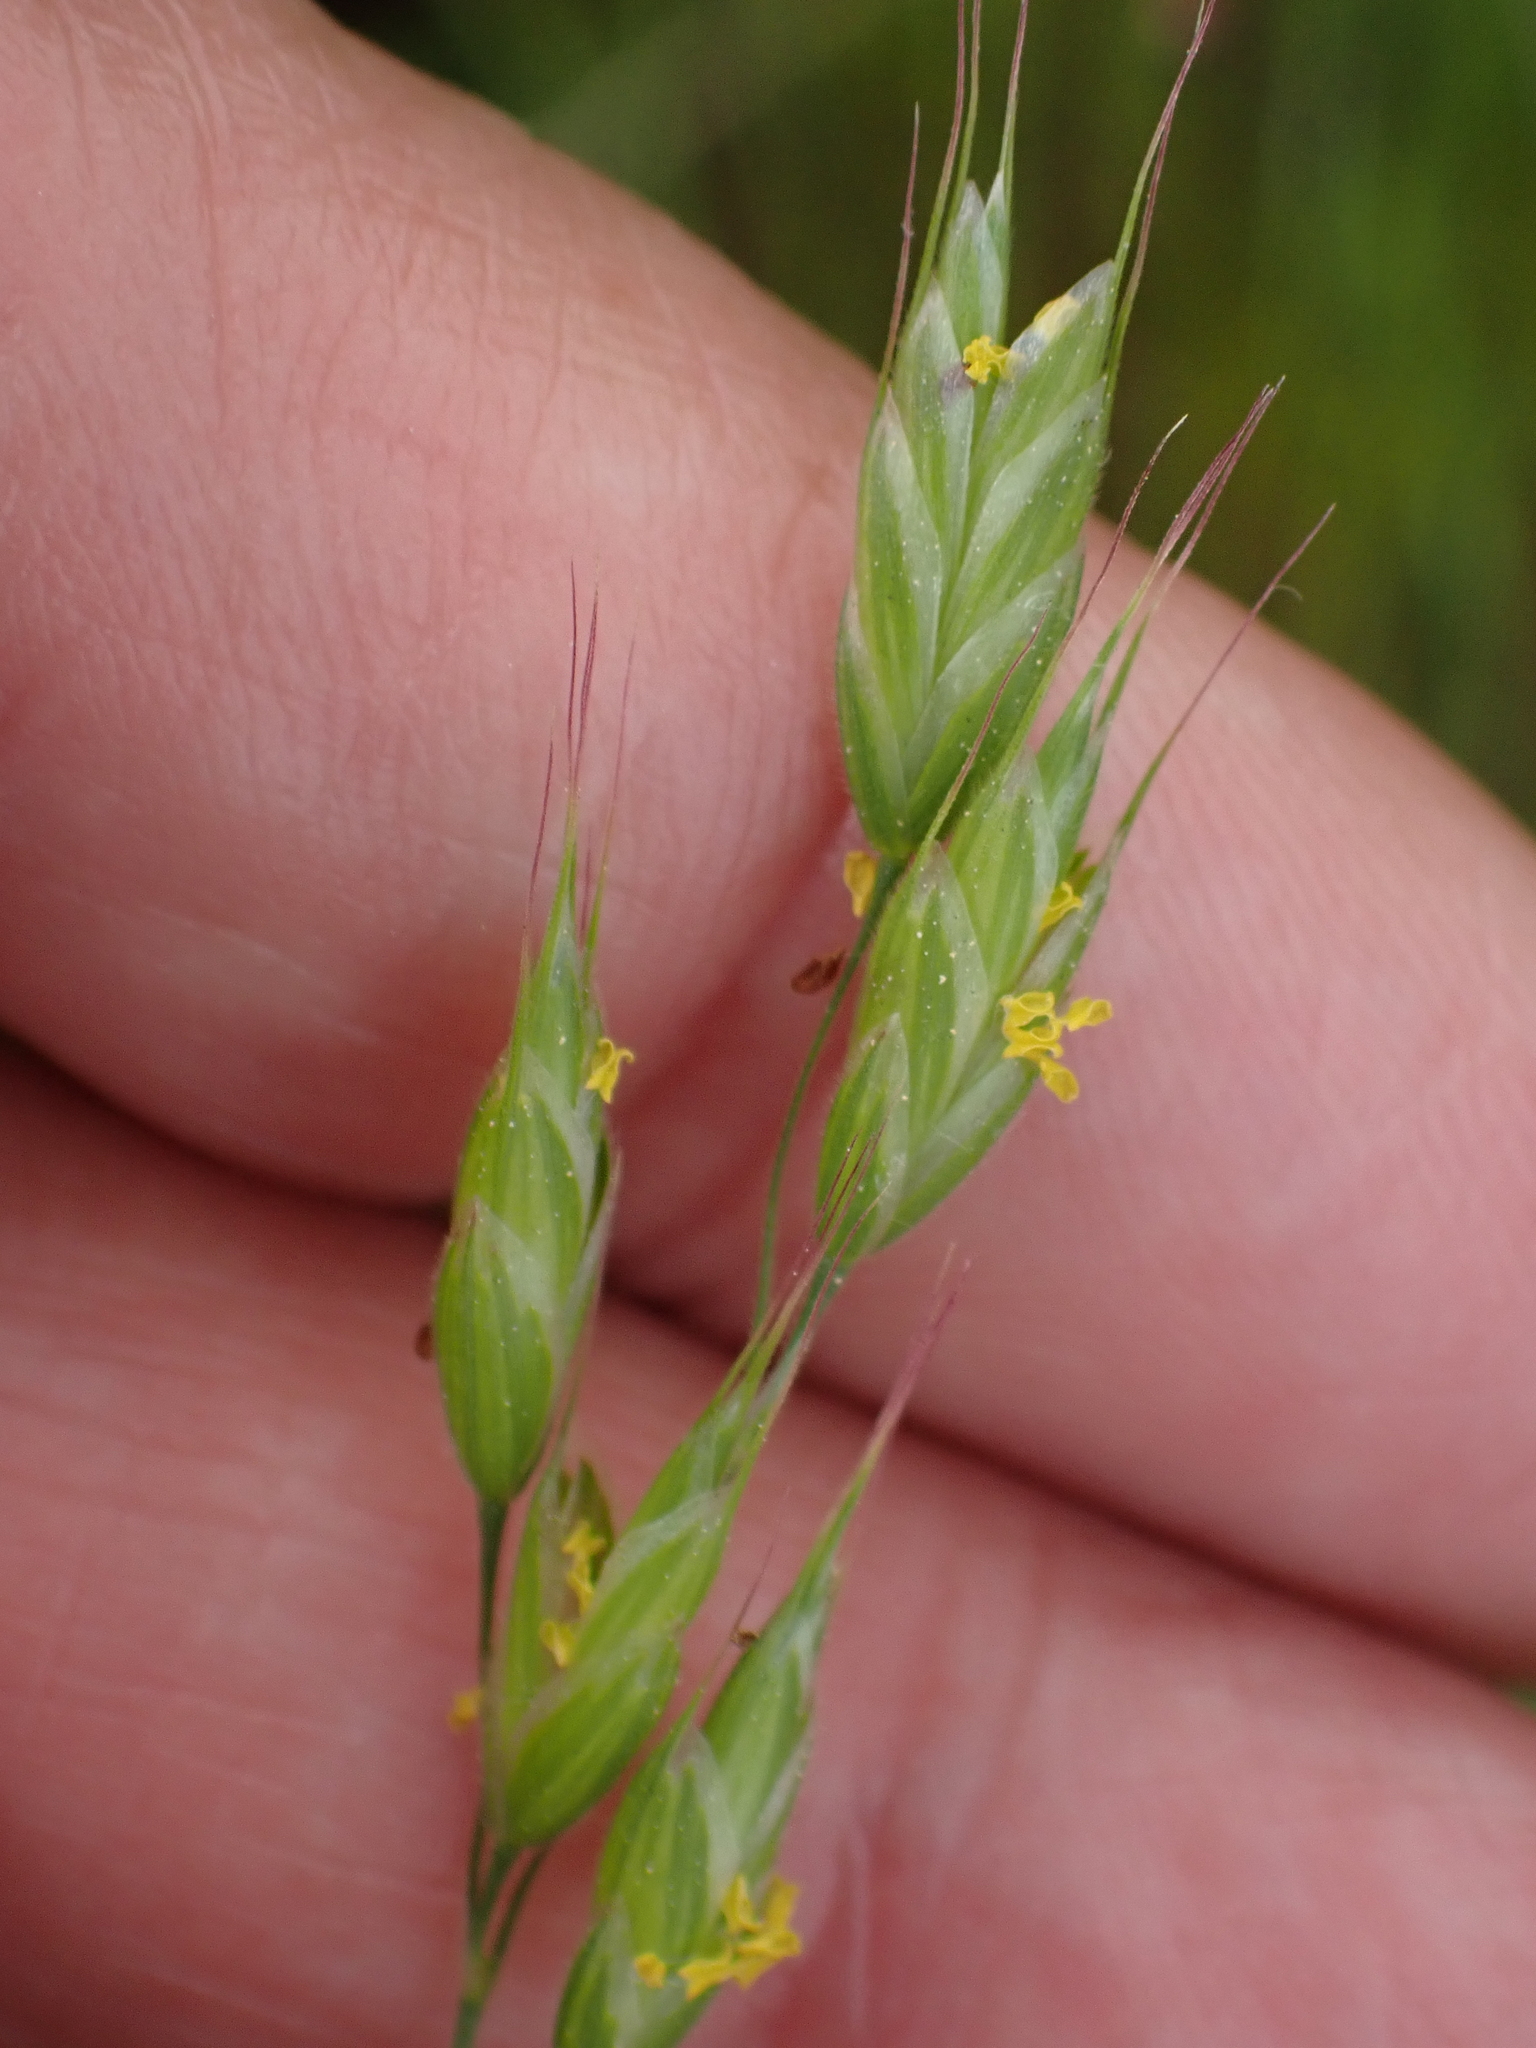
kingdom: Plantae
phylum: Tracheophyta
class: Liliopsida
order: Poales
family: Poaceae
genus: Bromus
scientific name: Bromus hordeaceus
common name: Soft brome
